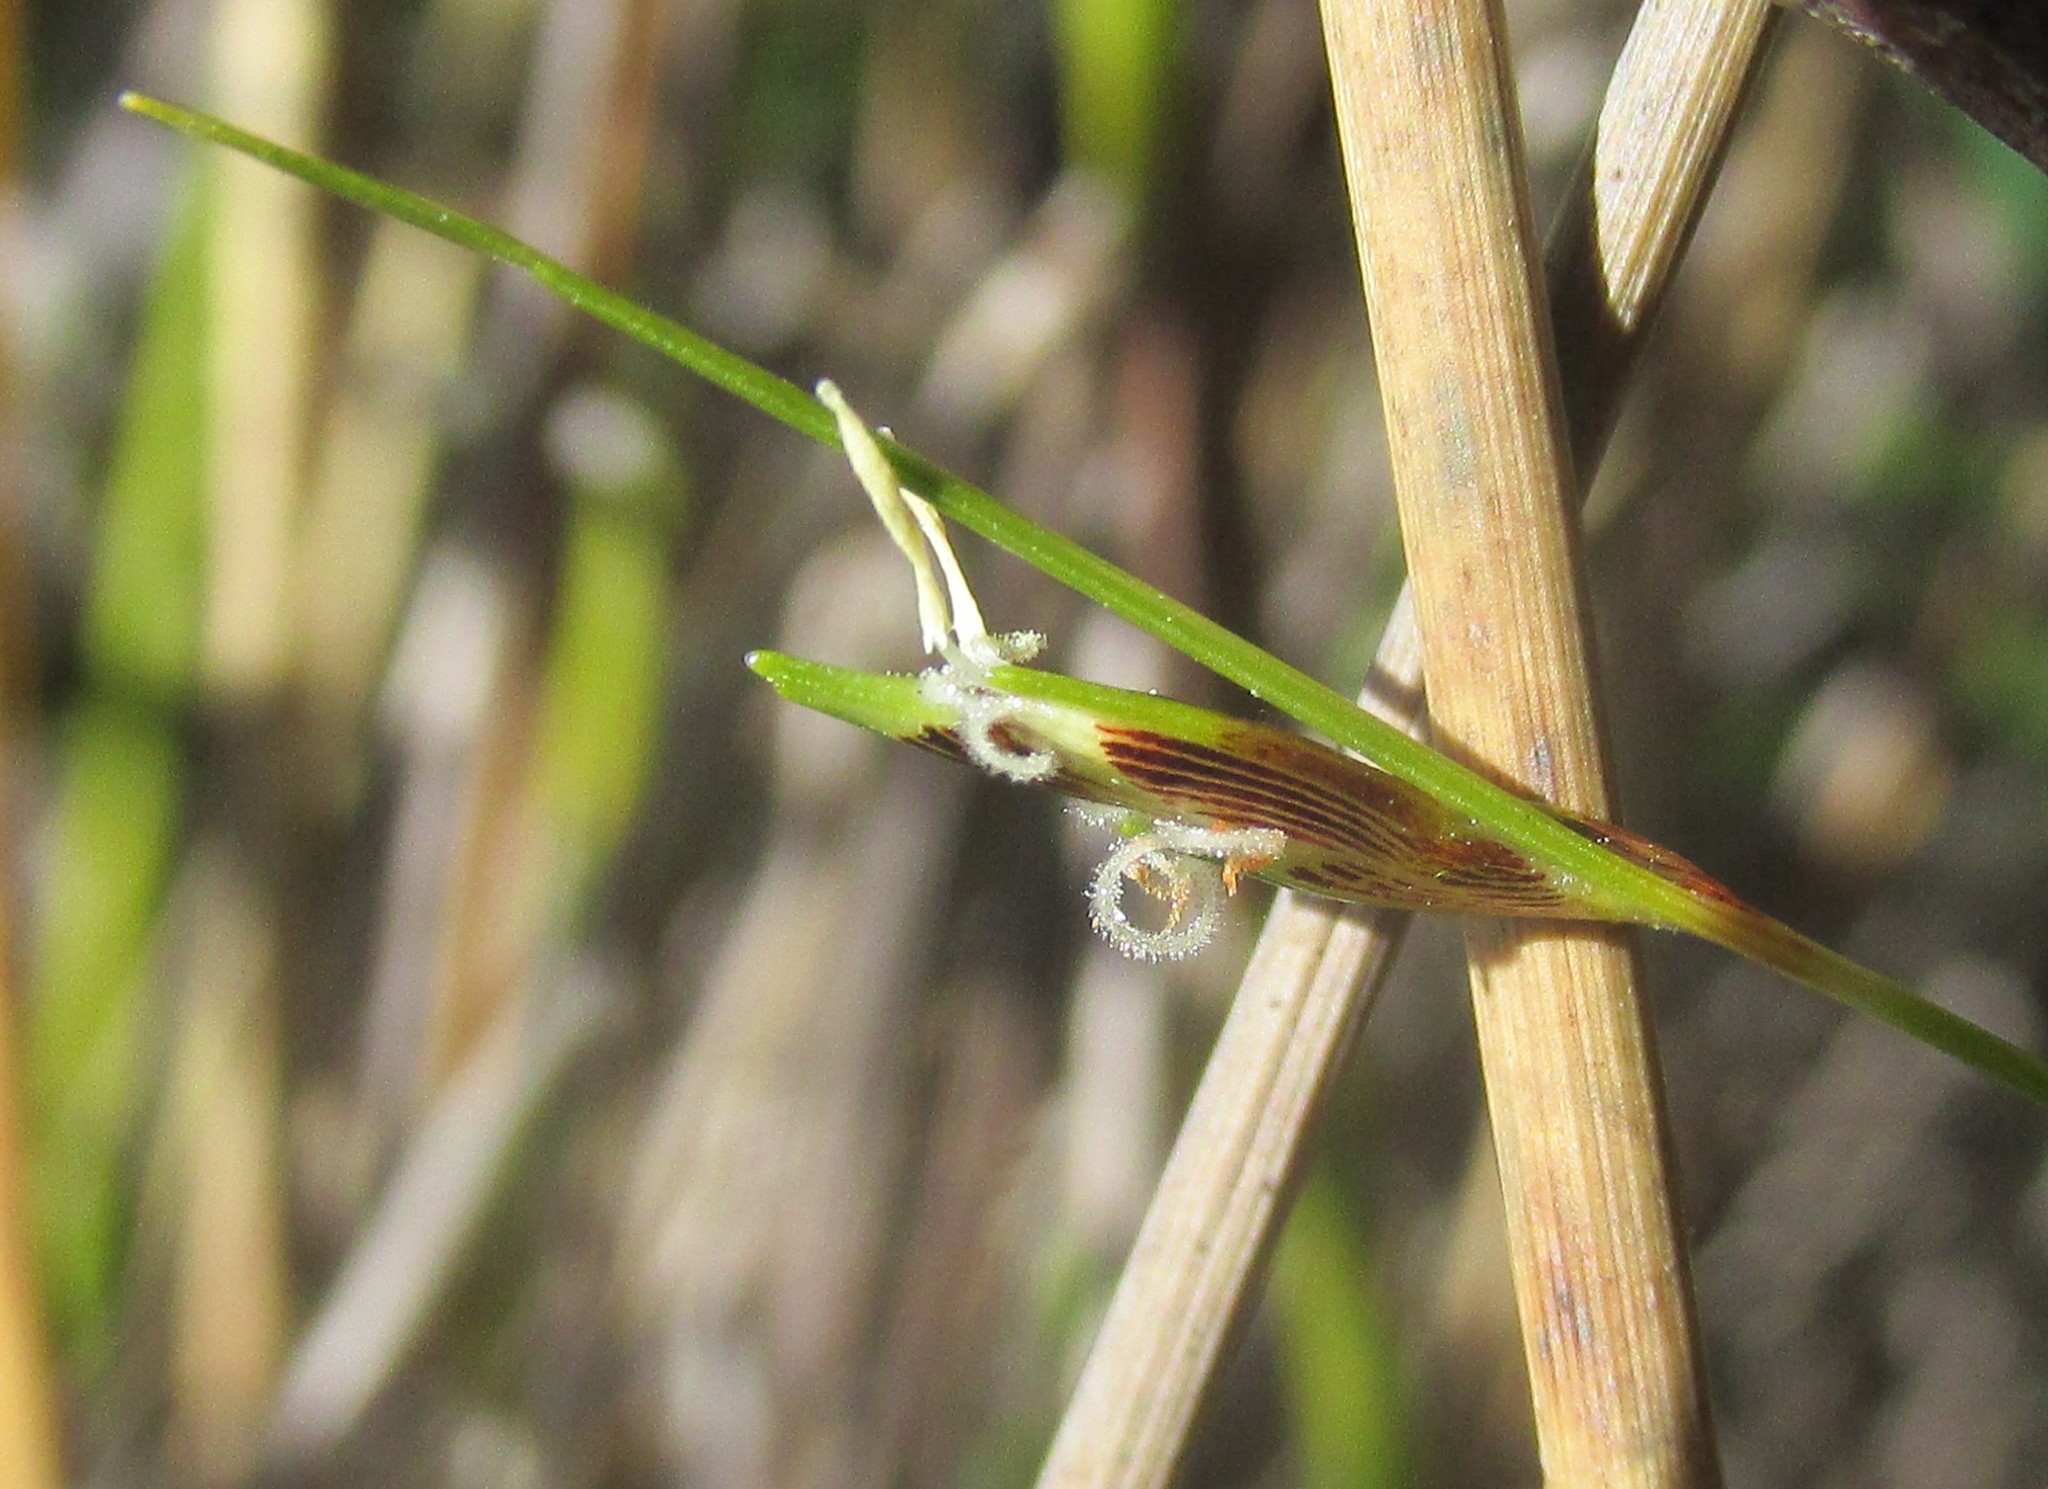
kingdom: Plantae
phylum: Tracheophyta
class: Liliopsida
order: Poales
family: Cyperaceae
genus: Ficinia
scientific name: Ficinia capillifolia
